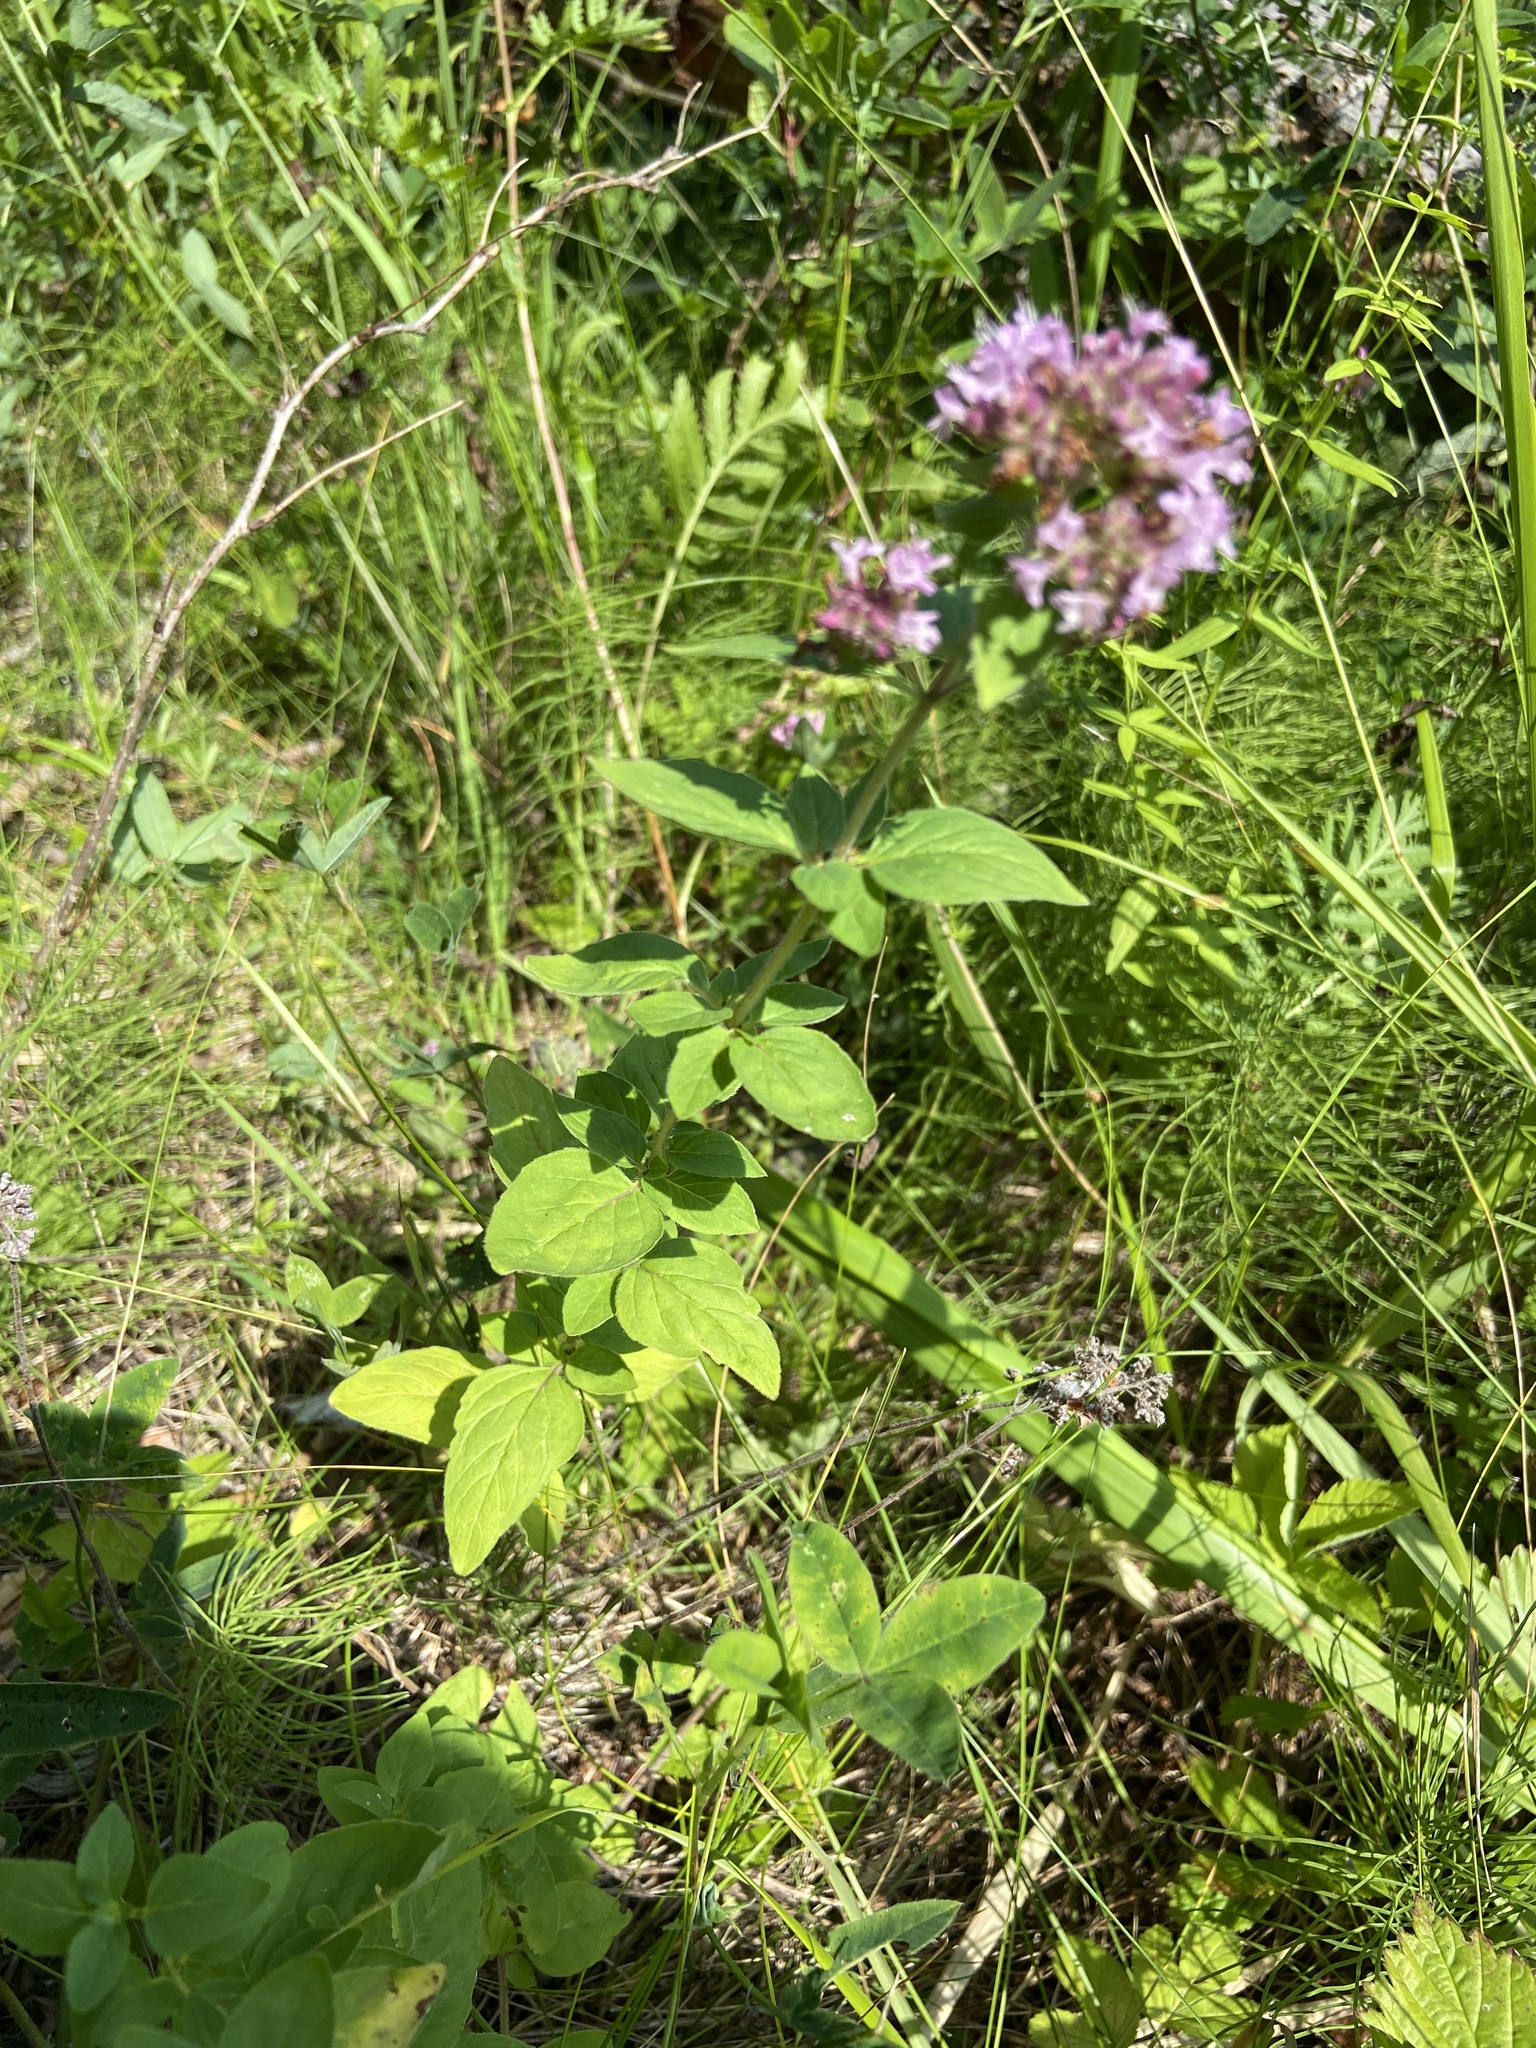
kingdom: Plantae
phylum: Tracheophyta
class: Magnoliopsida
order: Lamiales
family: Lamiaceae
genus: Origanum
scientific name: Origanum vulgare
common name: Wild marjoram
